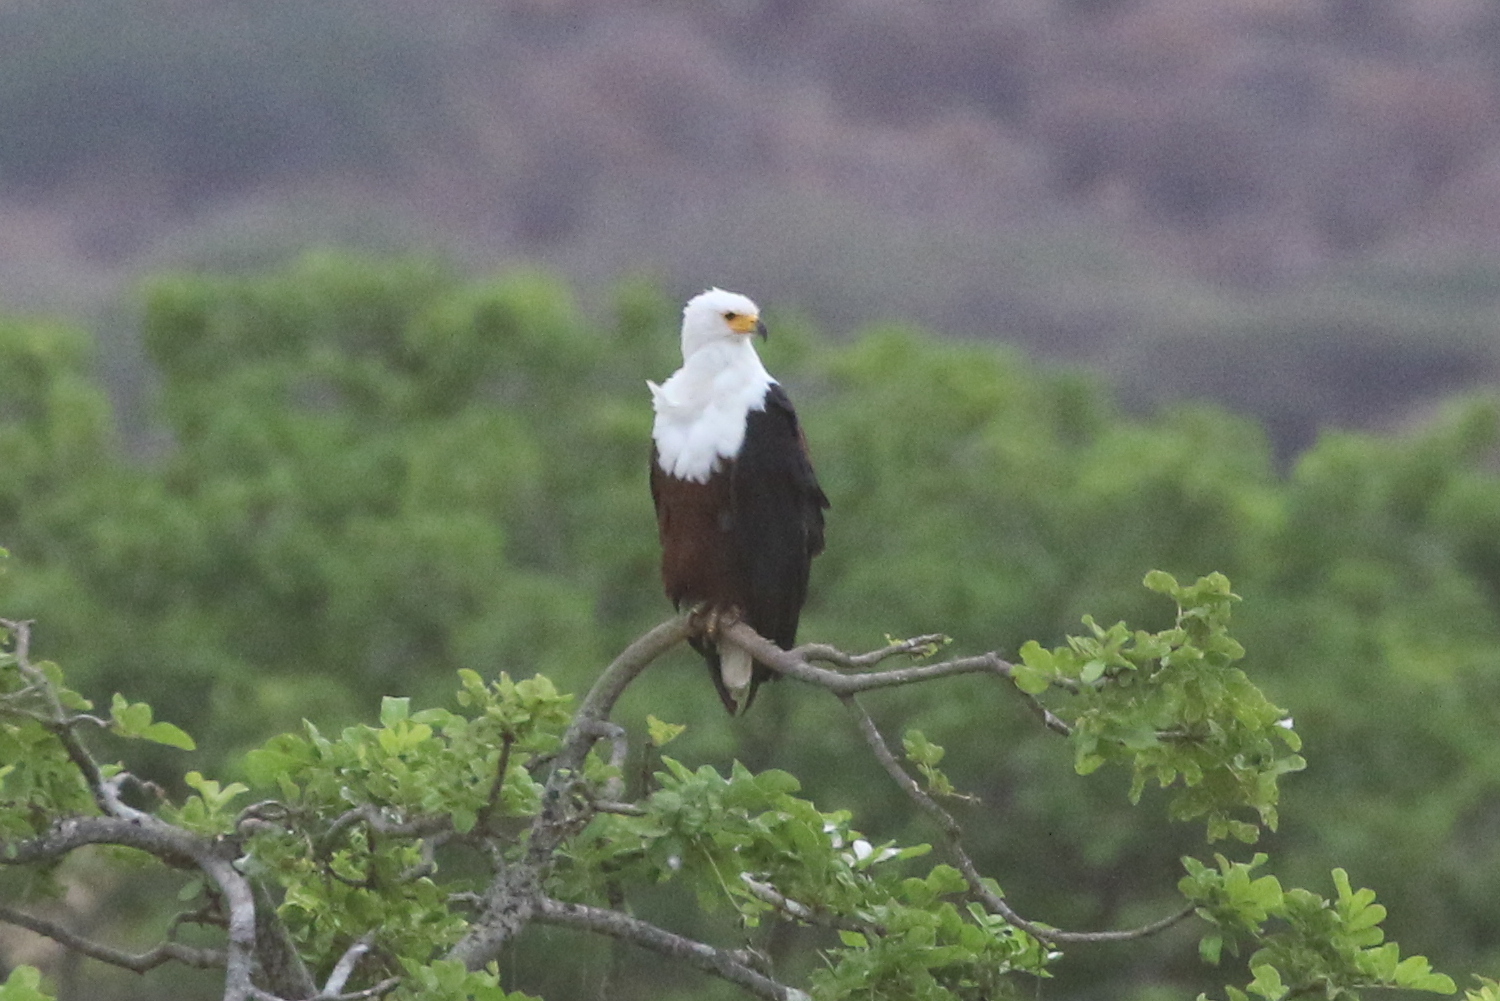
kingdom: Animalia
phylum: Chordata
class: Aves
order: Accipitriformes
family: Accipitridae
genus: Haliaeetus
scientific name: Haliaeetus vocifer
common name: African fish eagle
